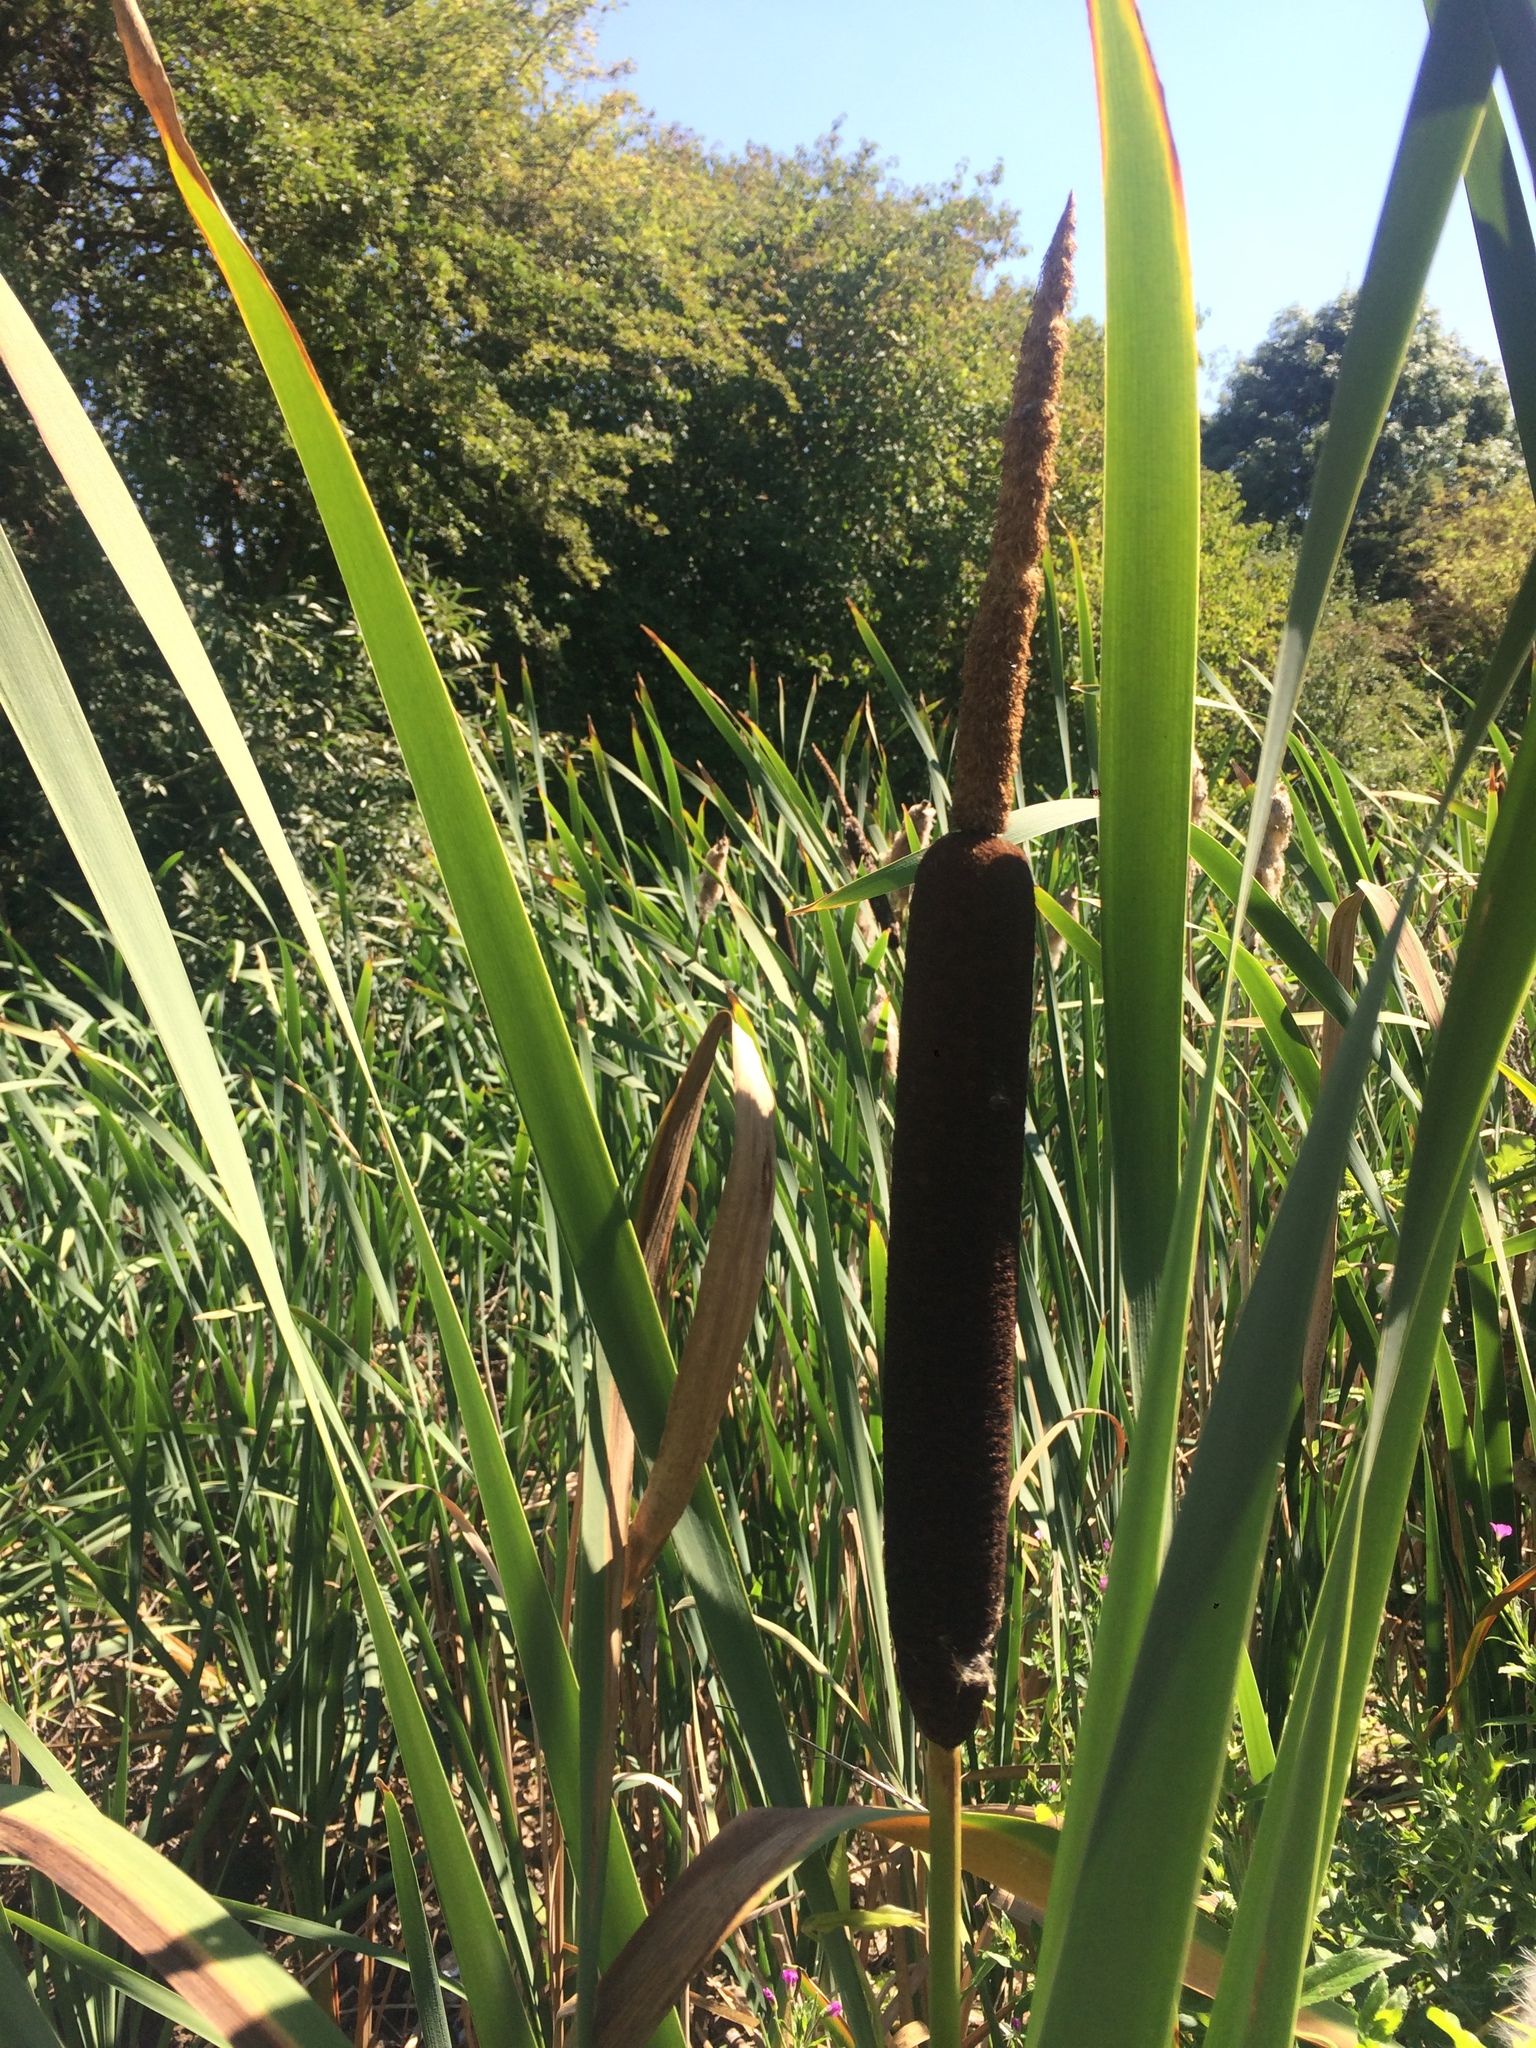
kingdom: Plantae
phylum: Tracheophyta
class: Liliopsida
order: Poales
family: Typhaceae
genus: Typha
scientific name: Typha latifolia
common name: Broadleaf cattail
